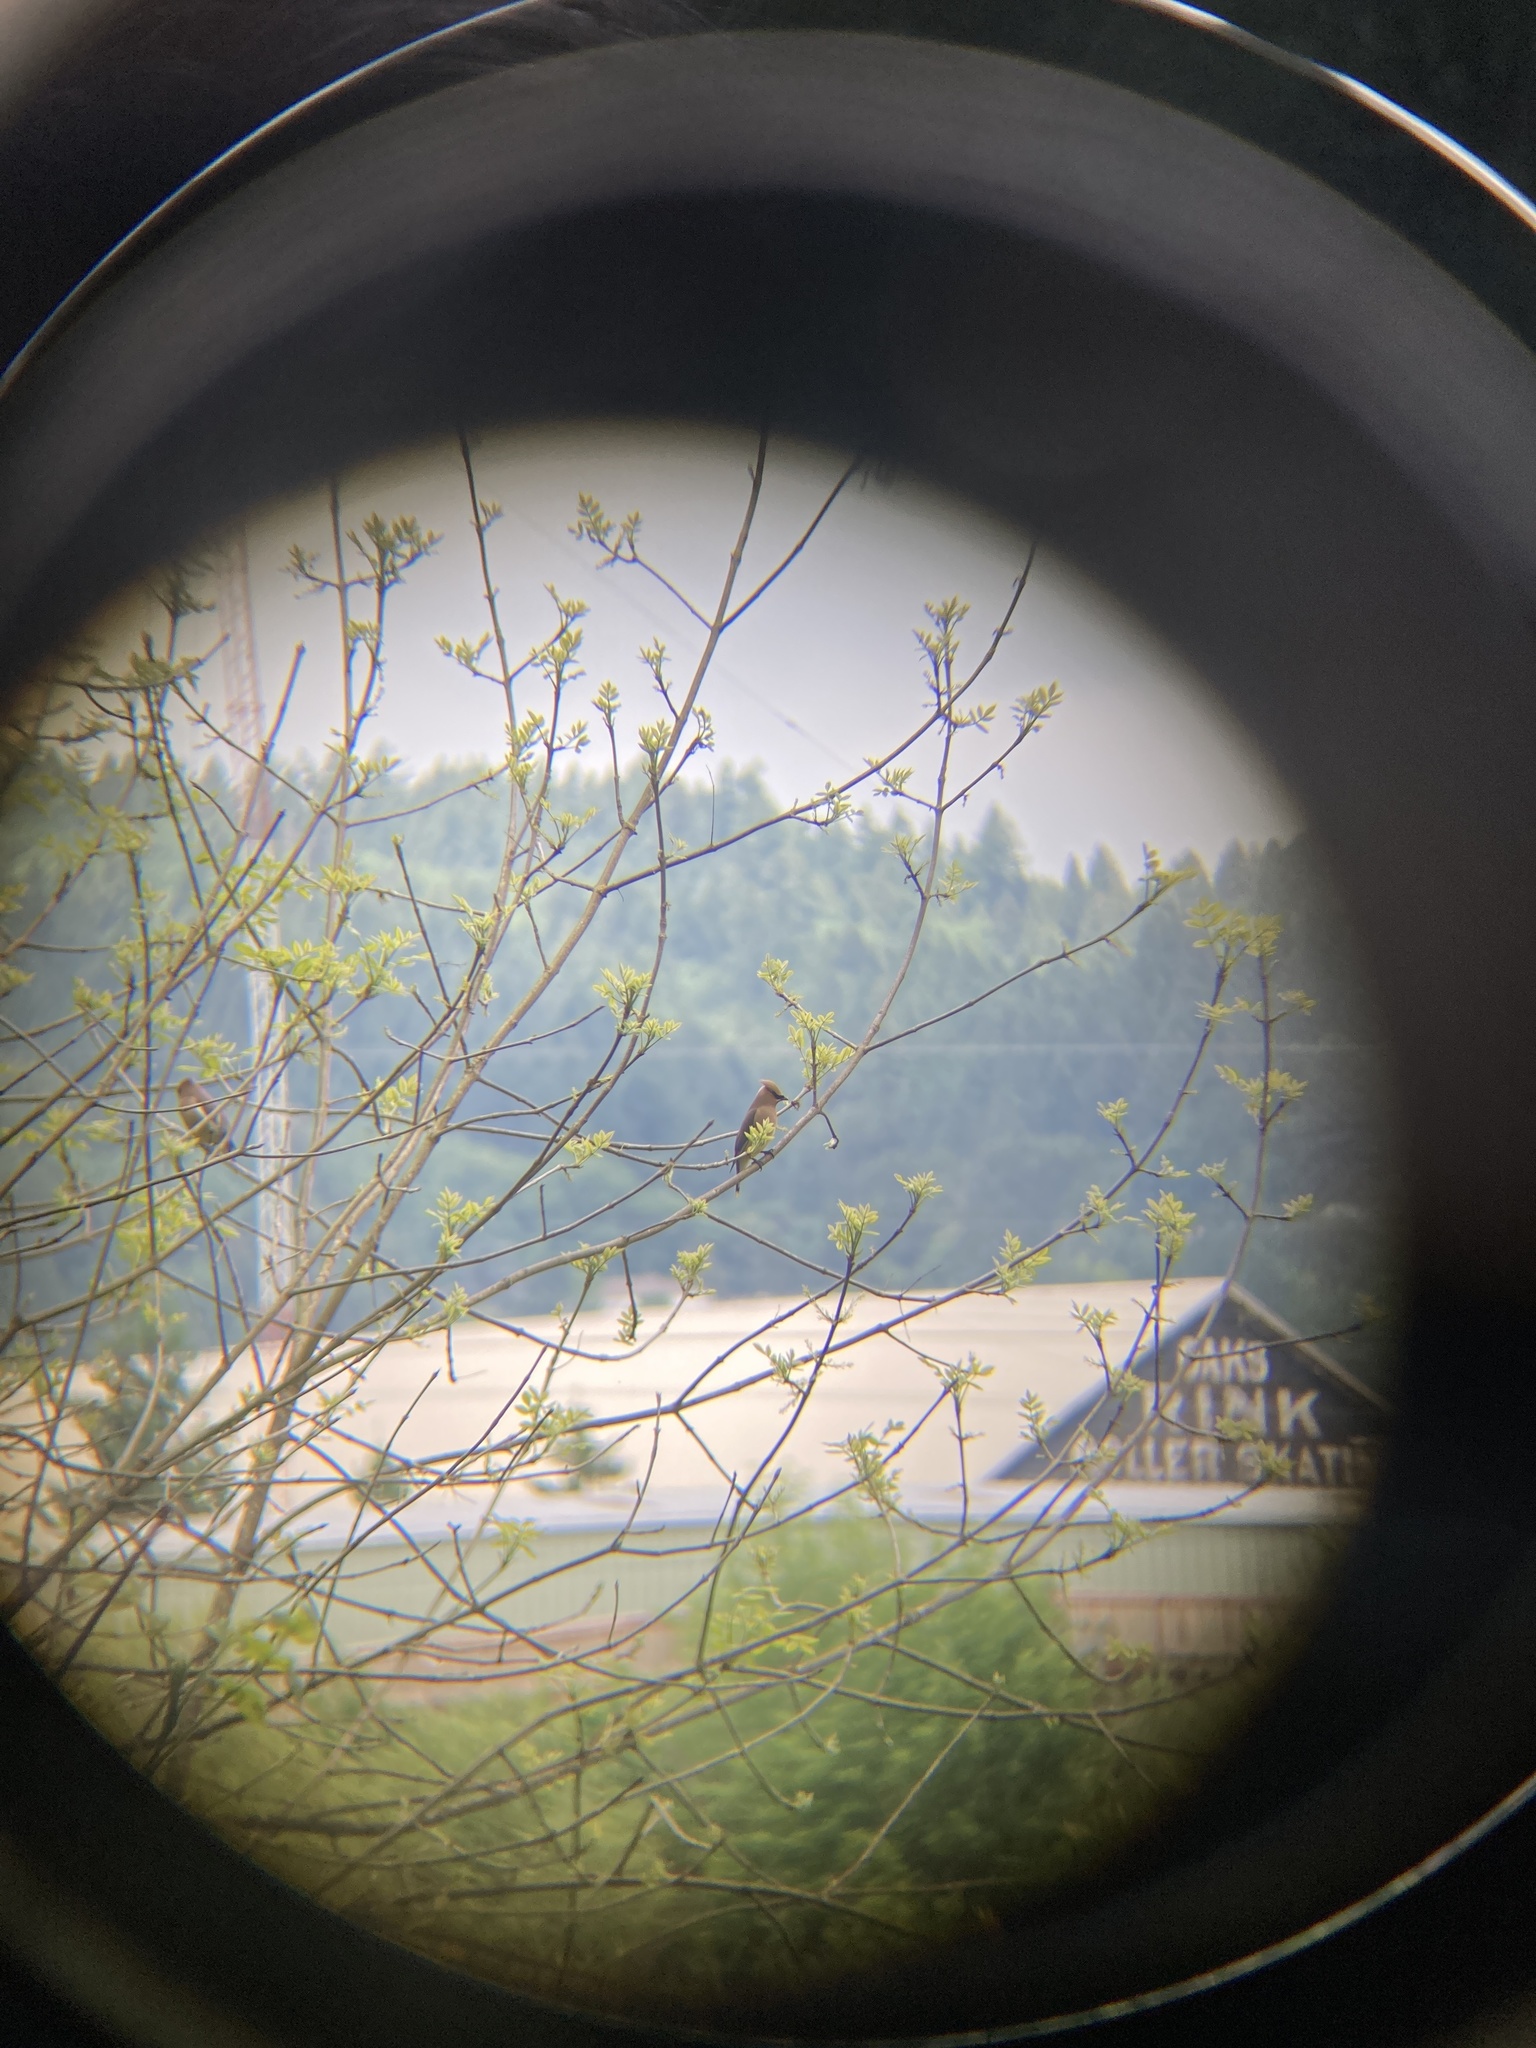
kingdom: Animalia
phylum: Chordata
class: Aves
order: Passeriformes
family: Bombycillidae
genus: Bombycilla
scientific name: Bombycilla cedrorum
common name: Cedar waxwing
